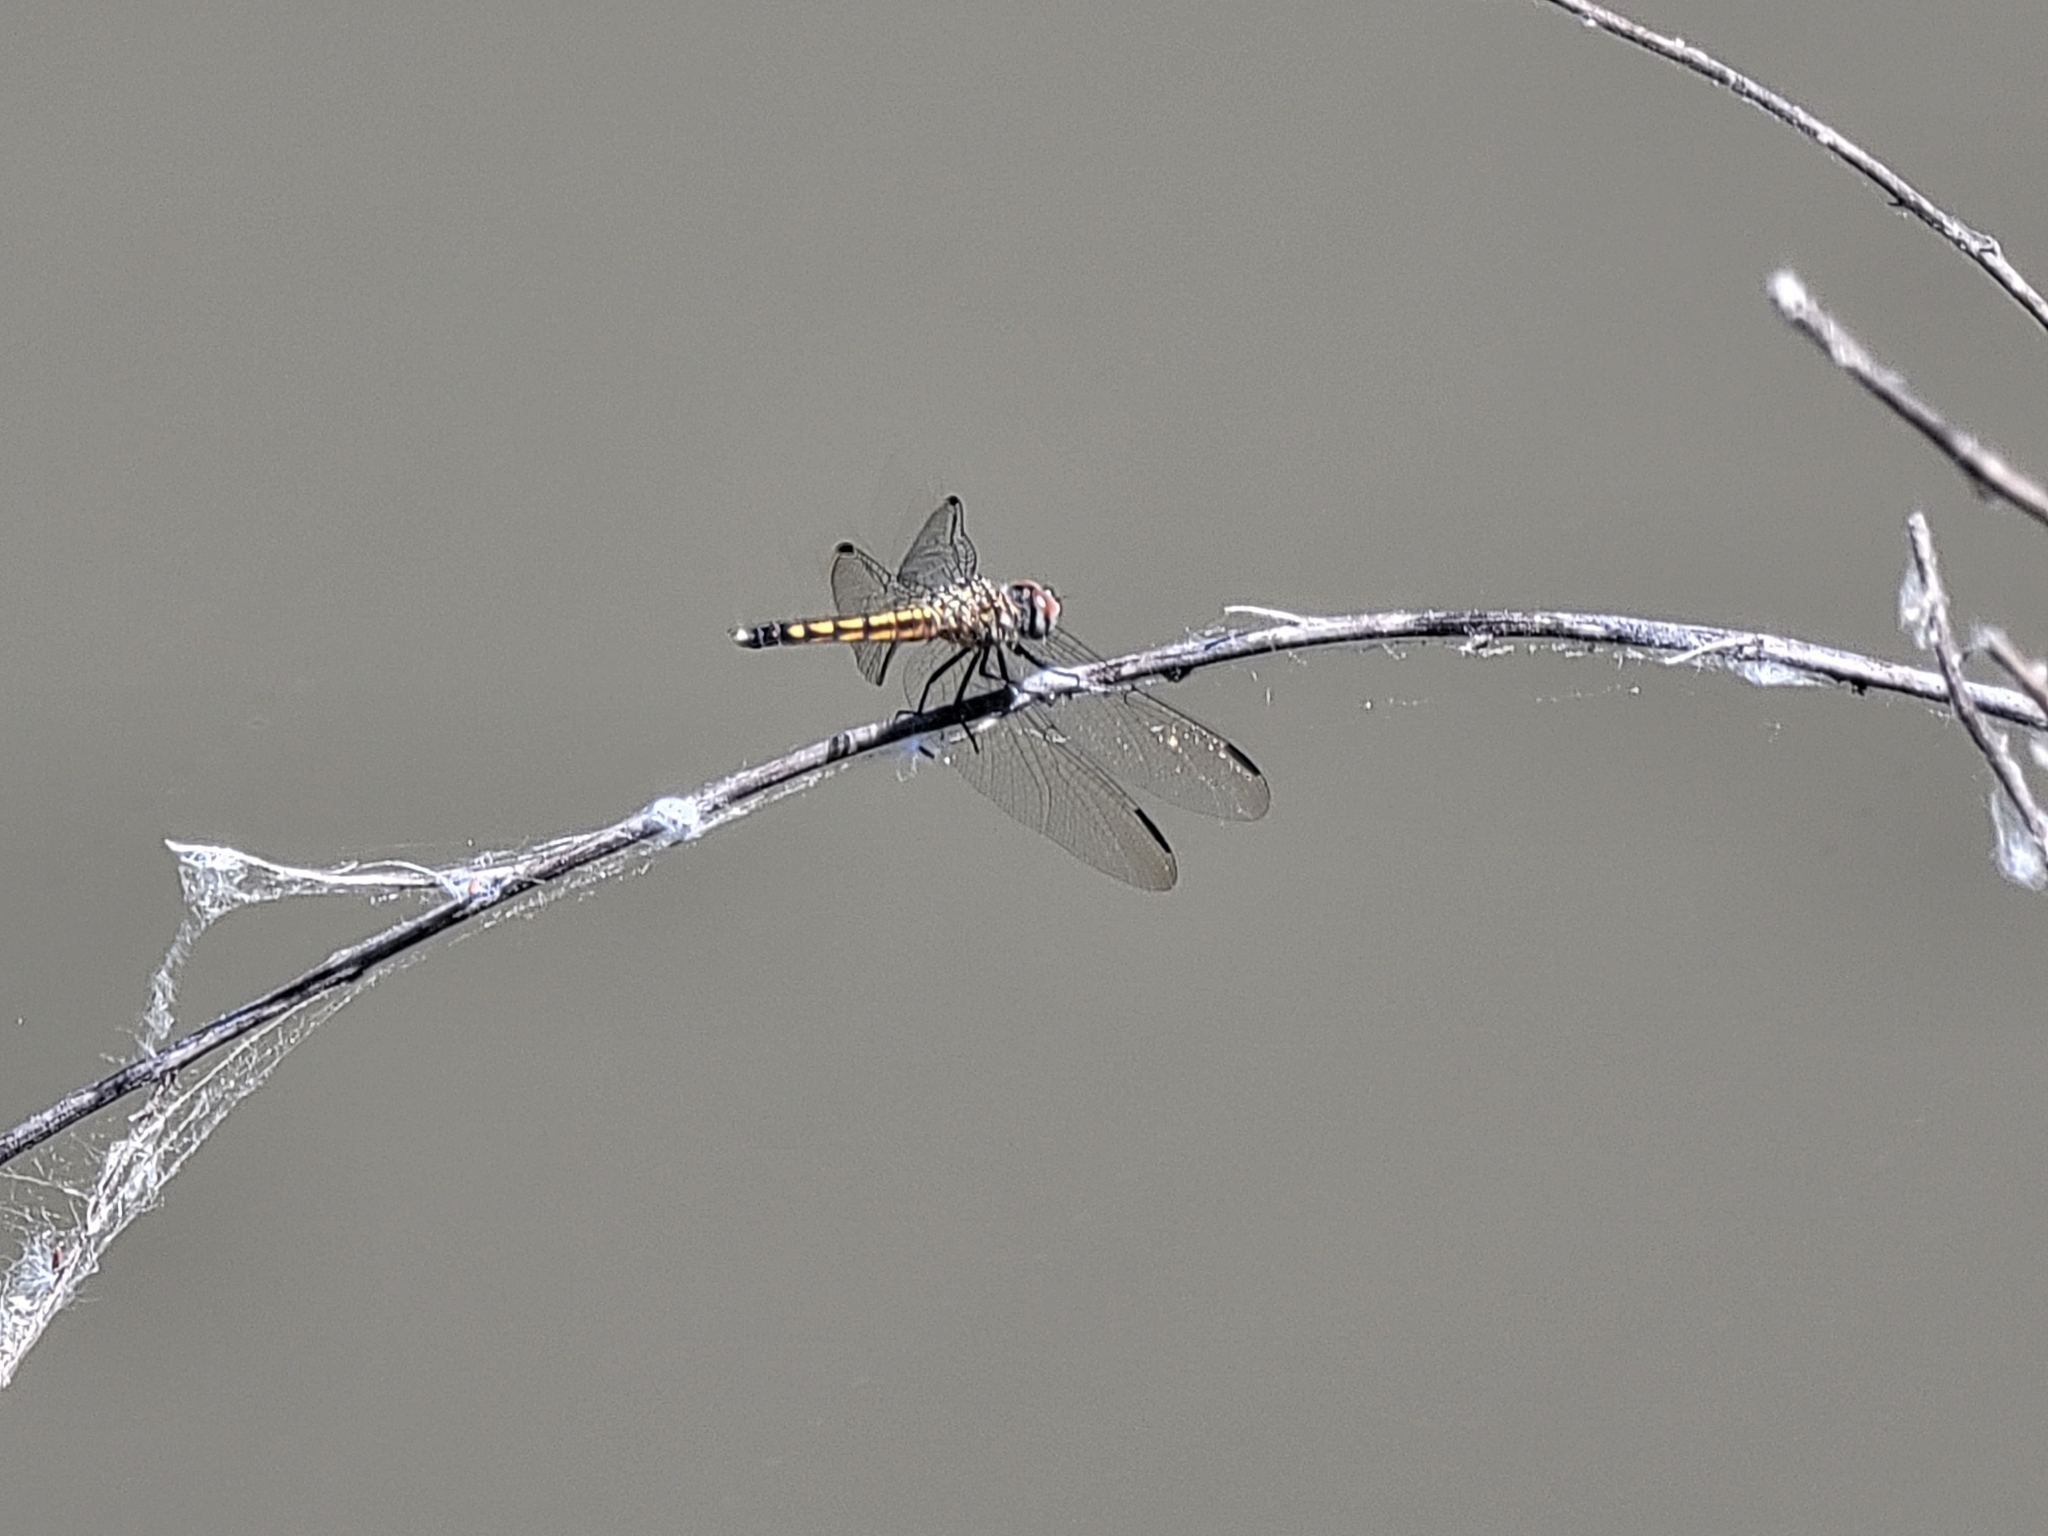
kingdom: Animalia
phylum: Arthropoda
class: Insecta
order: Odonata
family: Libellulidae
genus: Pachydiplax
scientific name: Pachydiplax longipennis
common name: Blue dasher
